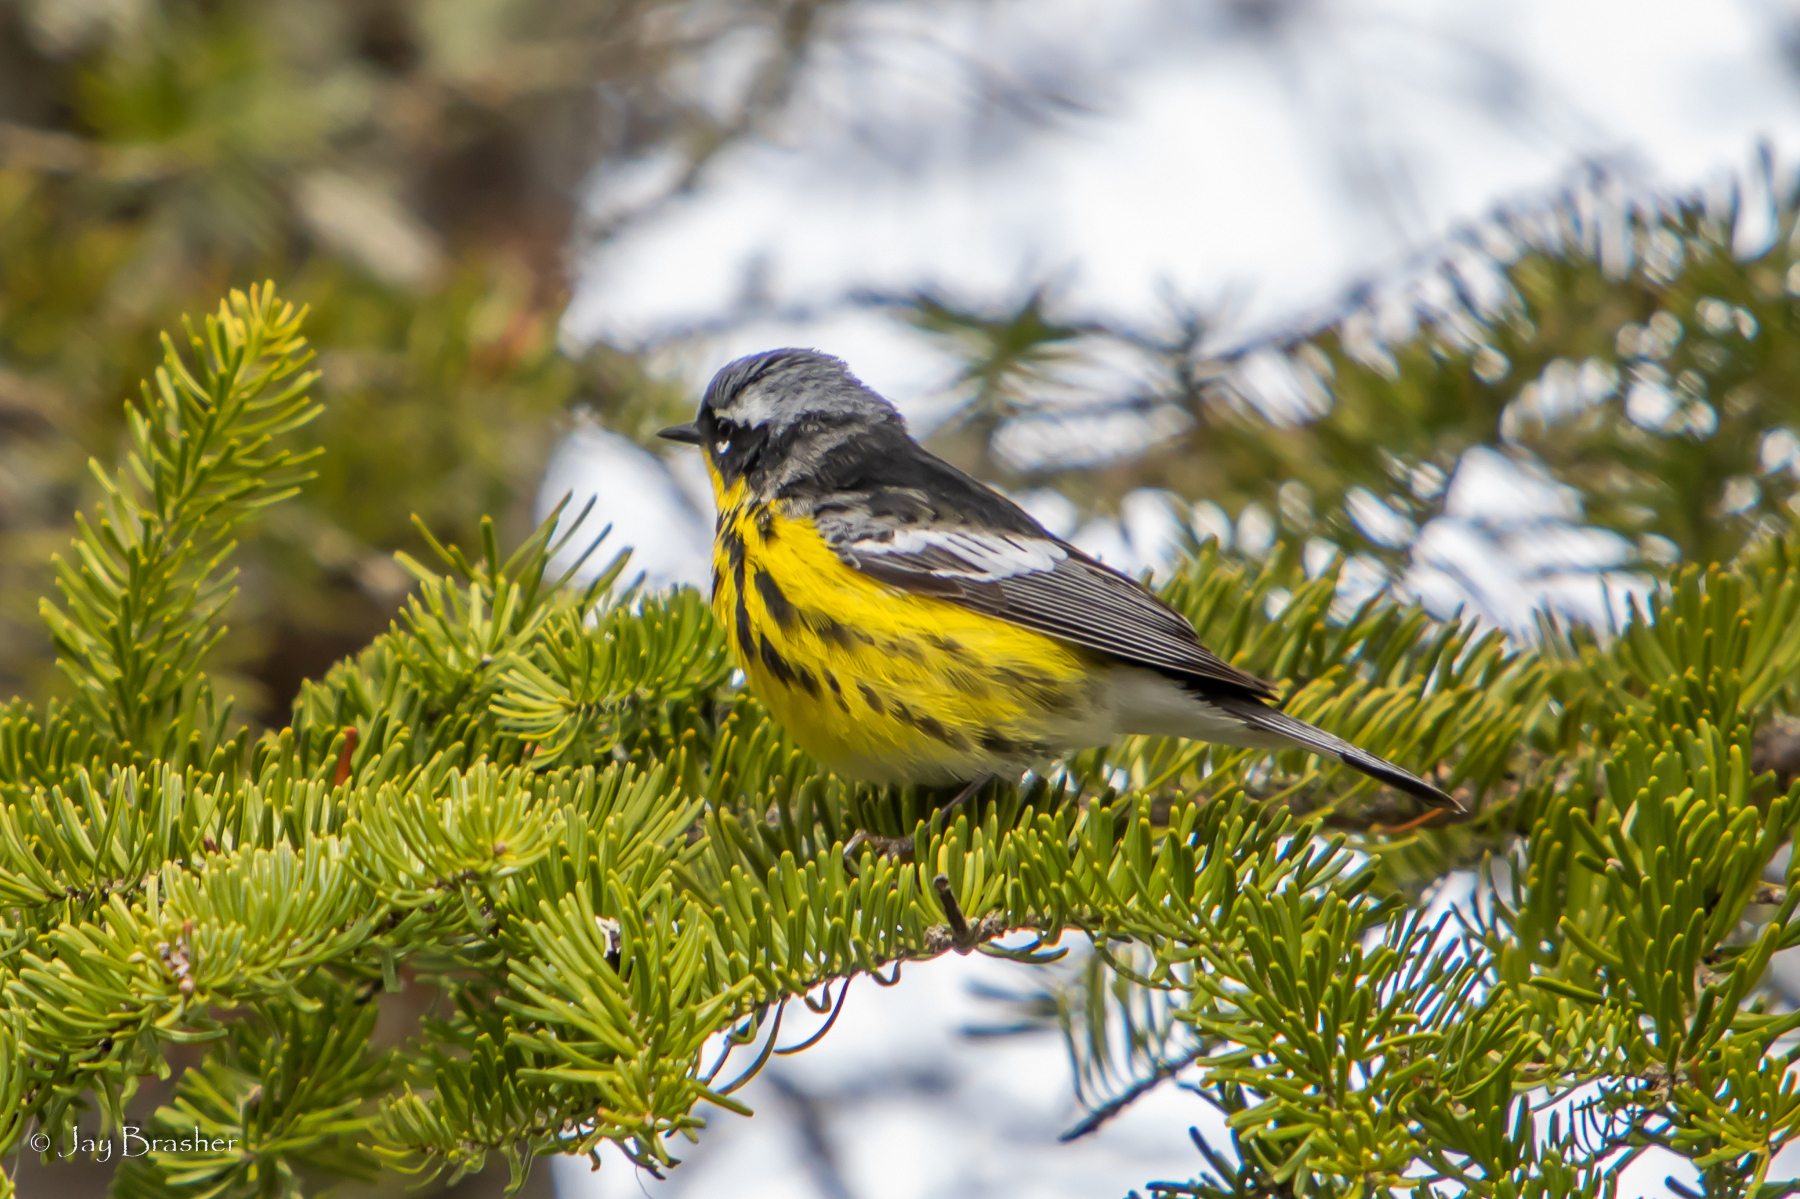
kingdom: Animalia
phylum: Chordata
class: Aves
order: Passeriformes
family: Parulidae
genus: Setophaga
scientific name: Setophaga magnolia
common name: Magnolia warbler
